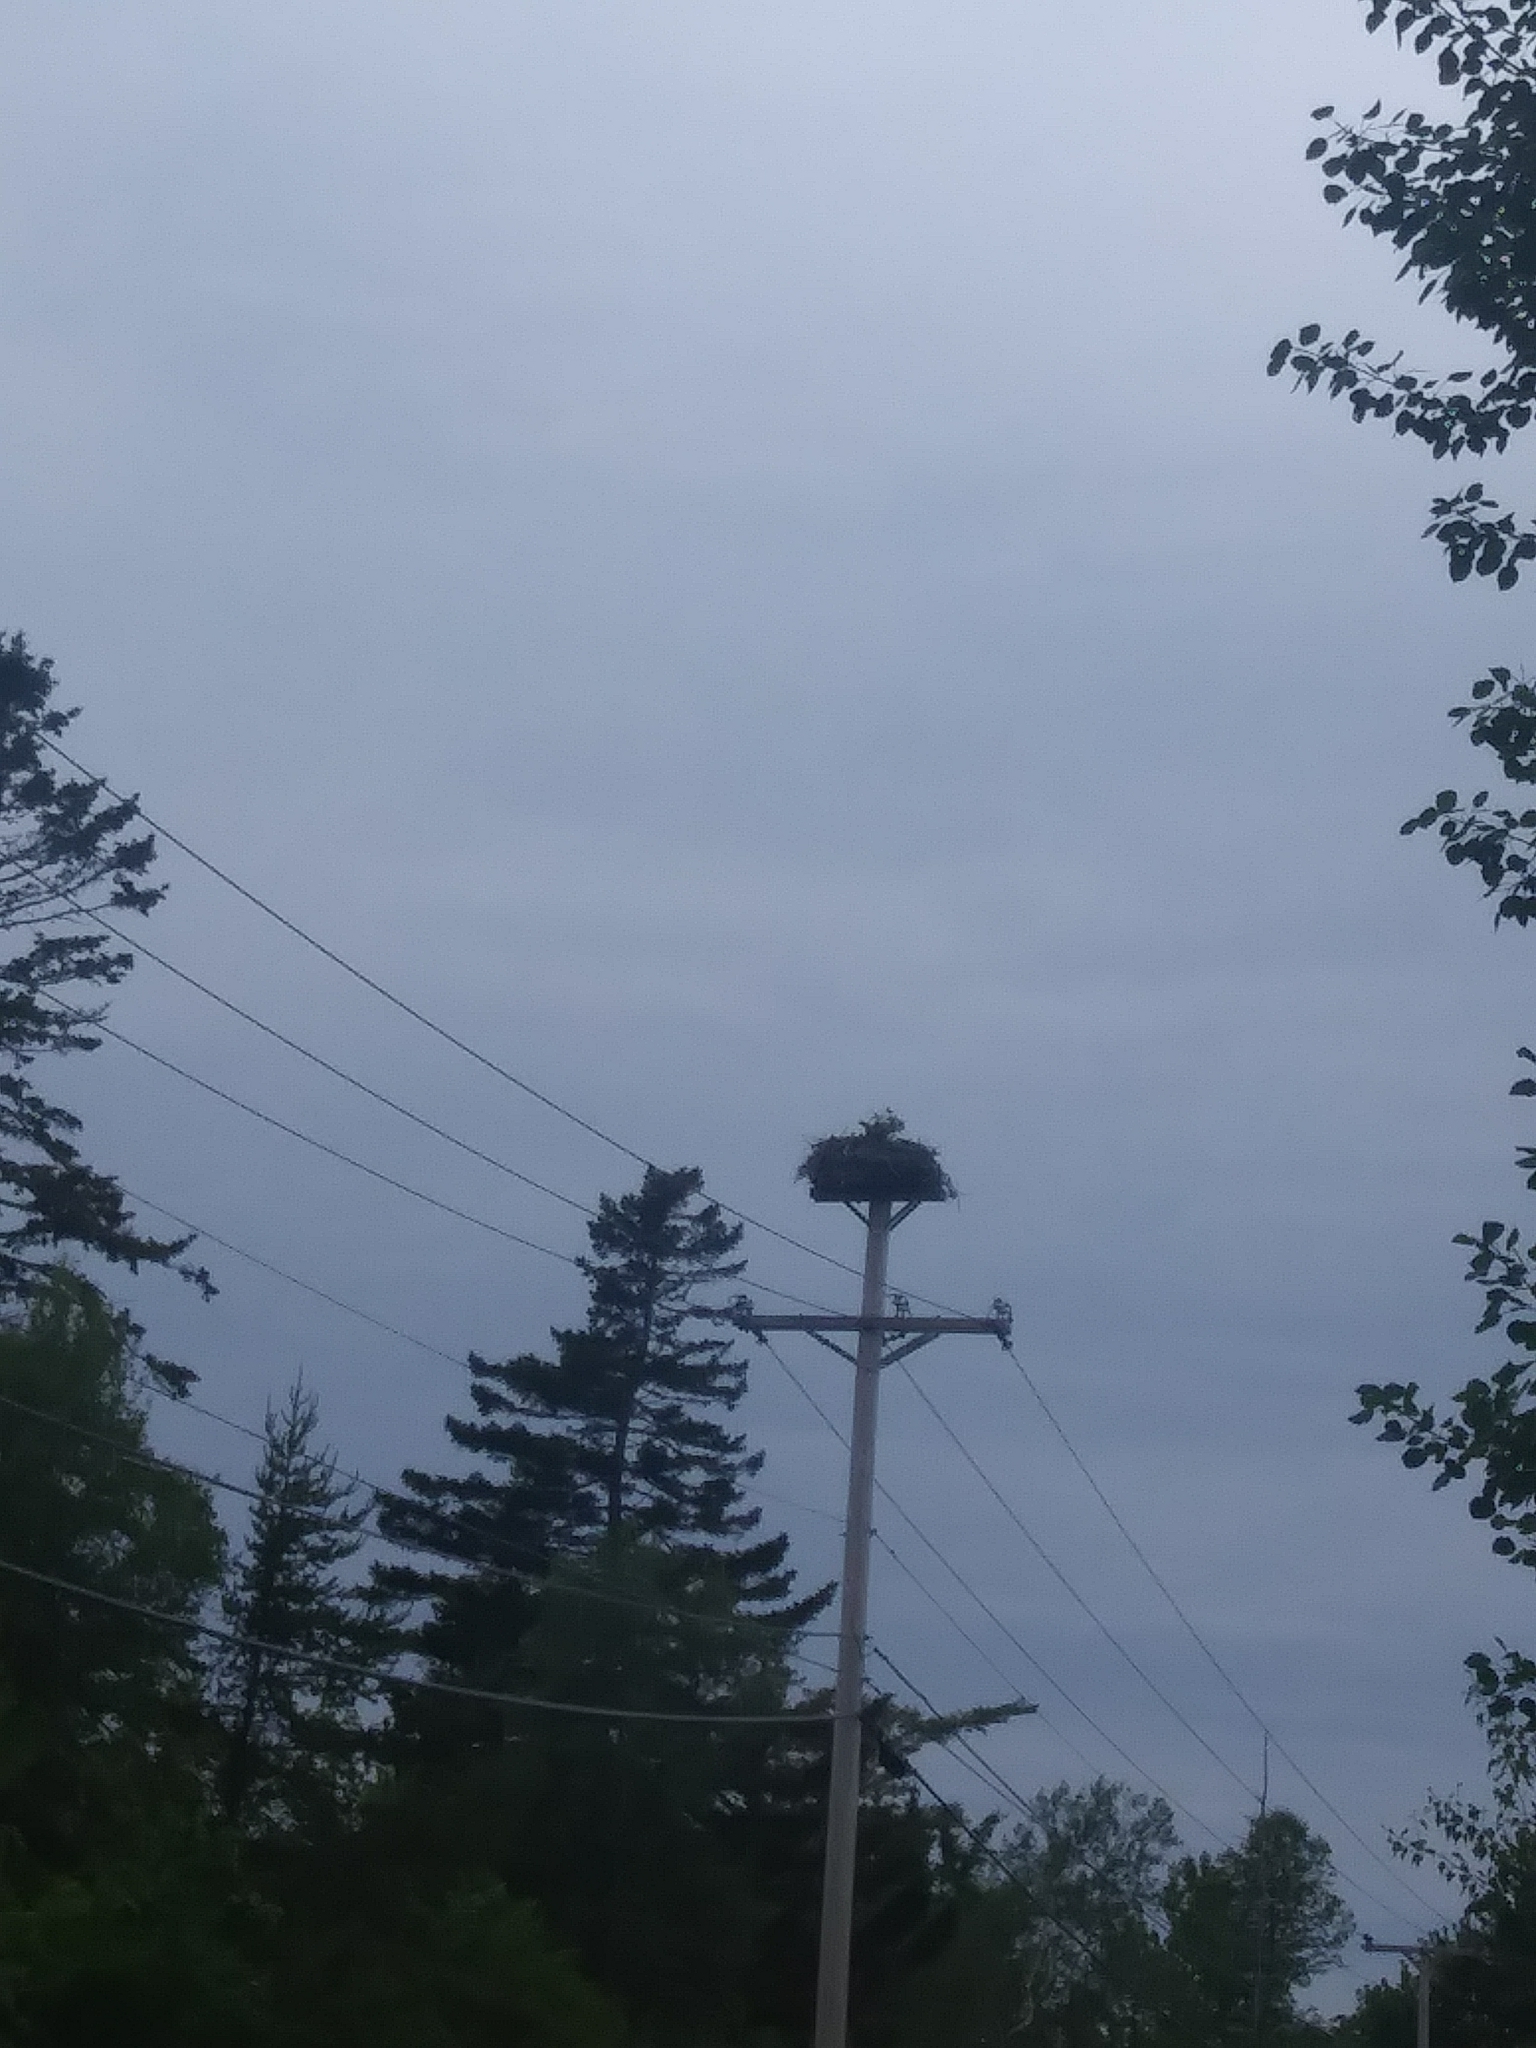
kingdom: Animalia
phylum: Chordata
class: Aves
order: Accipitriformes
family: Pandionidae
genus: Pandion
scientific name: Pandion haliaetus
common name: Osprey
